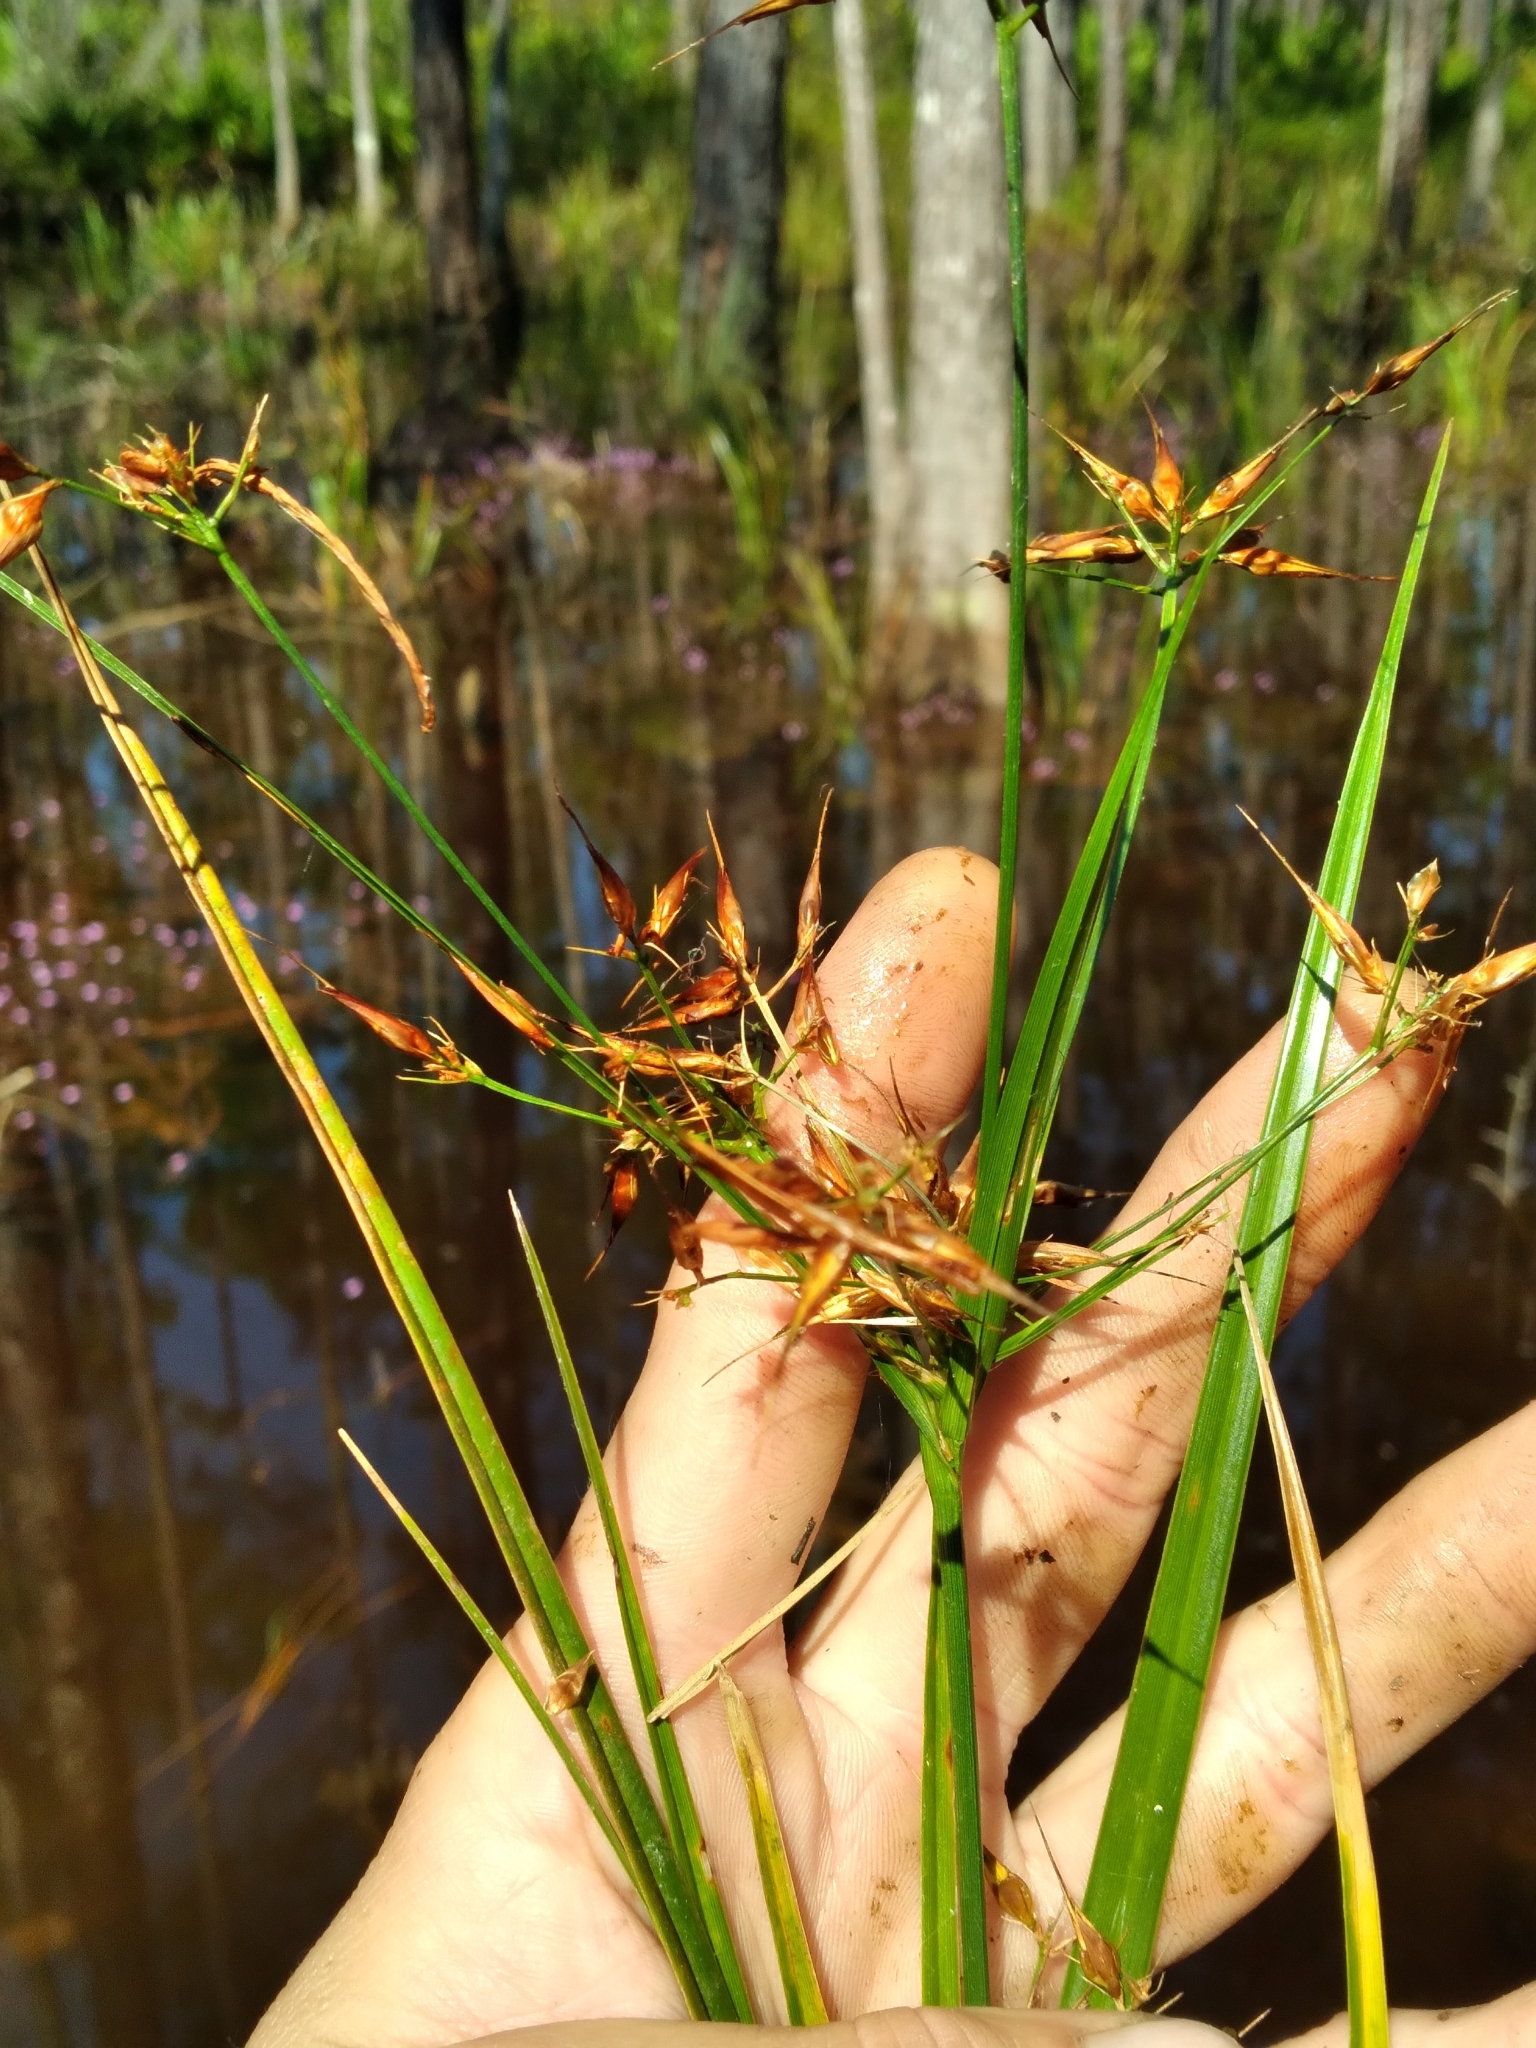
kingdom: Plantae
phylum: Tracheophyta
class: Liliopsida
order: Poales
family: Cyperaceae
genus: Rhynchospora
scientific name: Rhynchospora careyana
